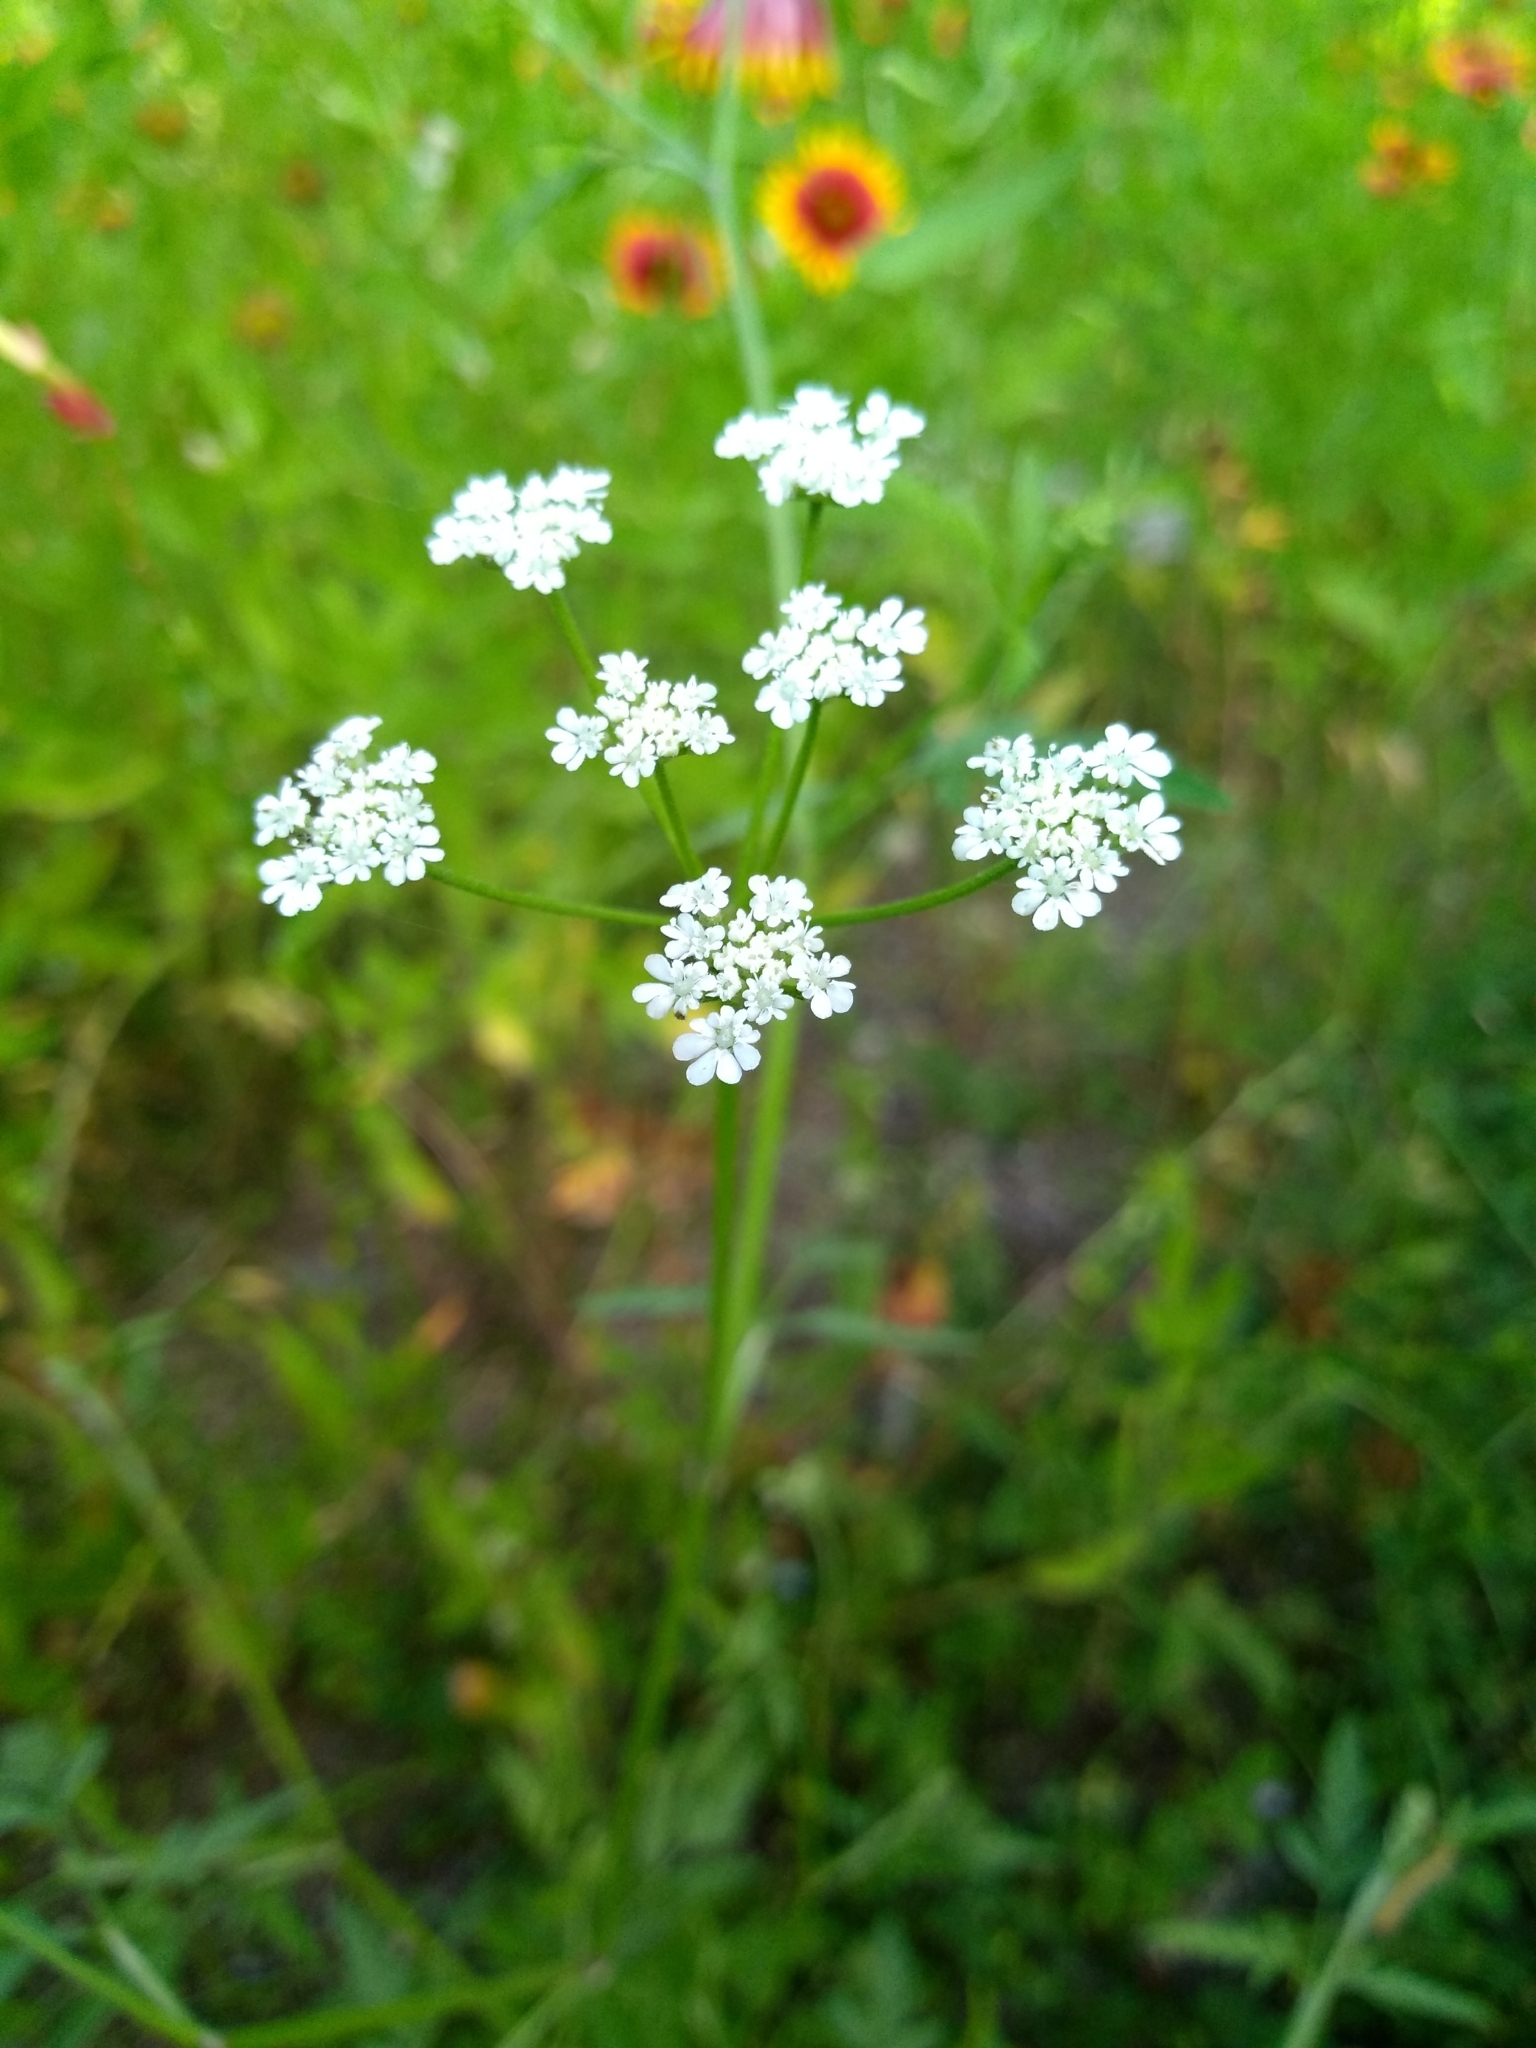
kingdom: Plantae
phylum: Tracheophyta
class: Magnoliopsida
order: Apiales
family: Apiaceae
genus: Torilis
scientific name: Torilis arvensis
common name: Spreading hedge-parsley
